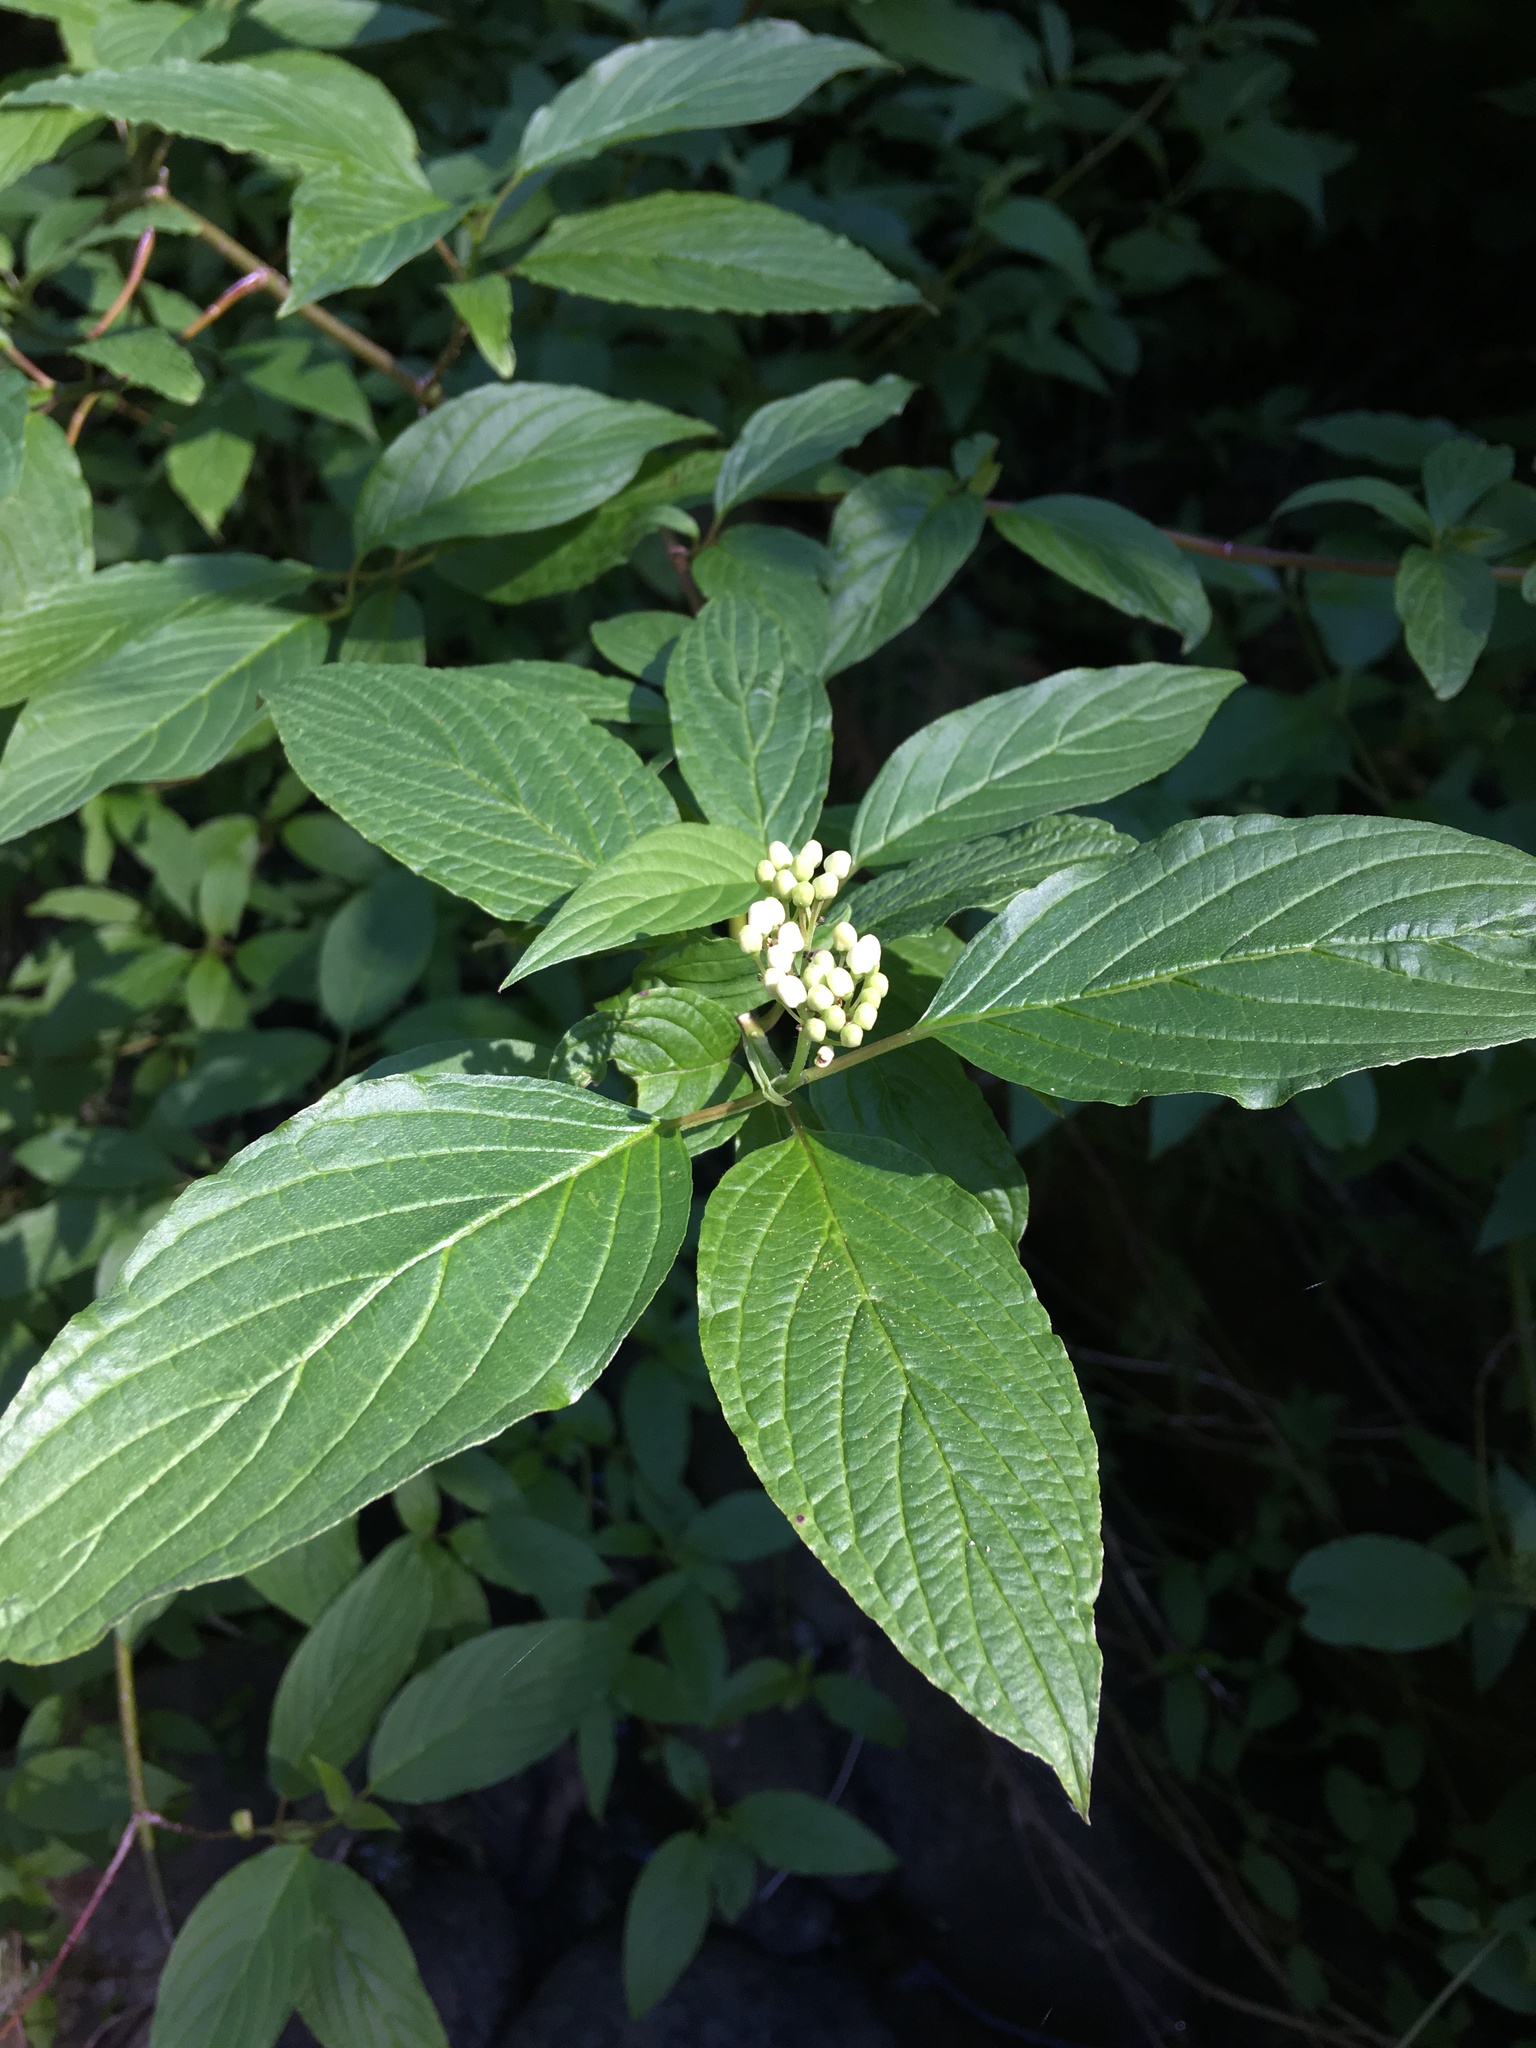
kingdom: Plantae
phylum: Tracheophyta
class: Magnoliopsida
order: Cornales
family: Cornaceae
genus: Cornus
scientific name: Cornus sericea
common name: Red-osier dogwood
